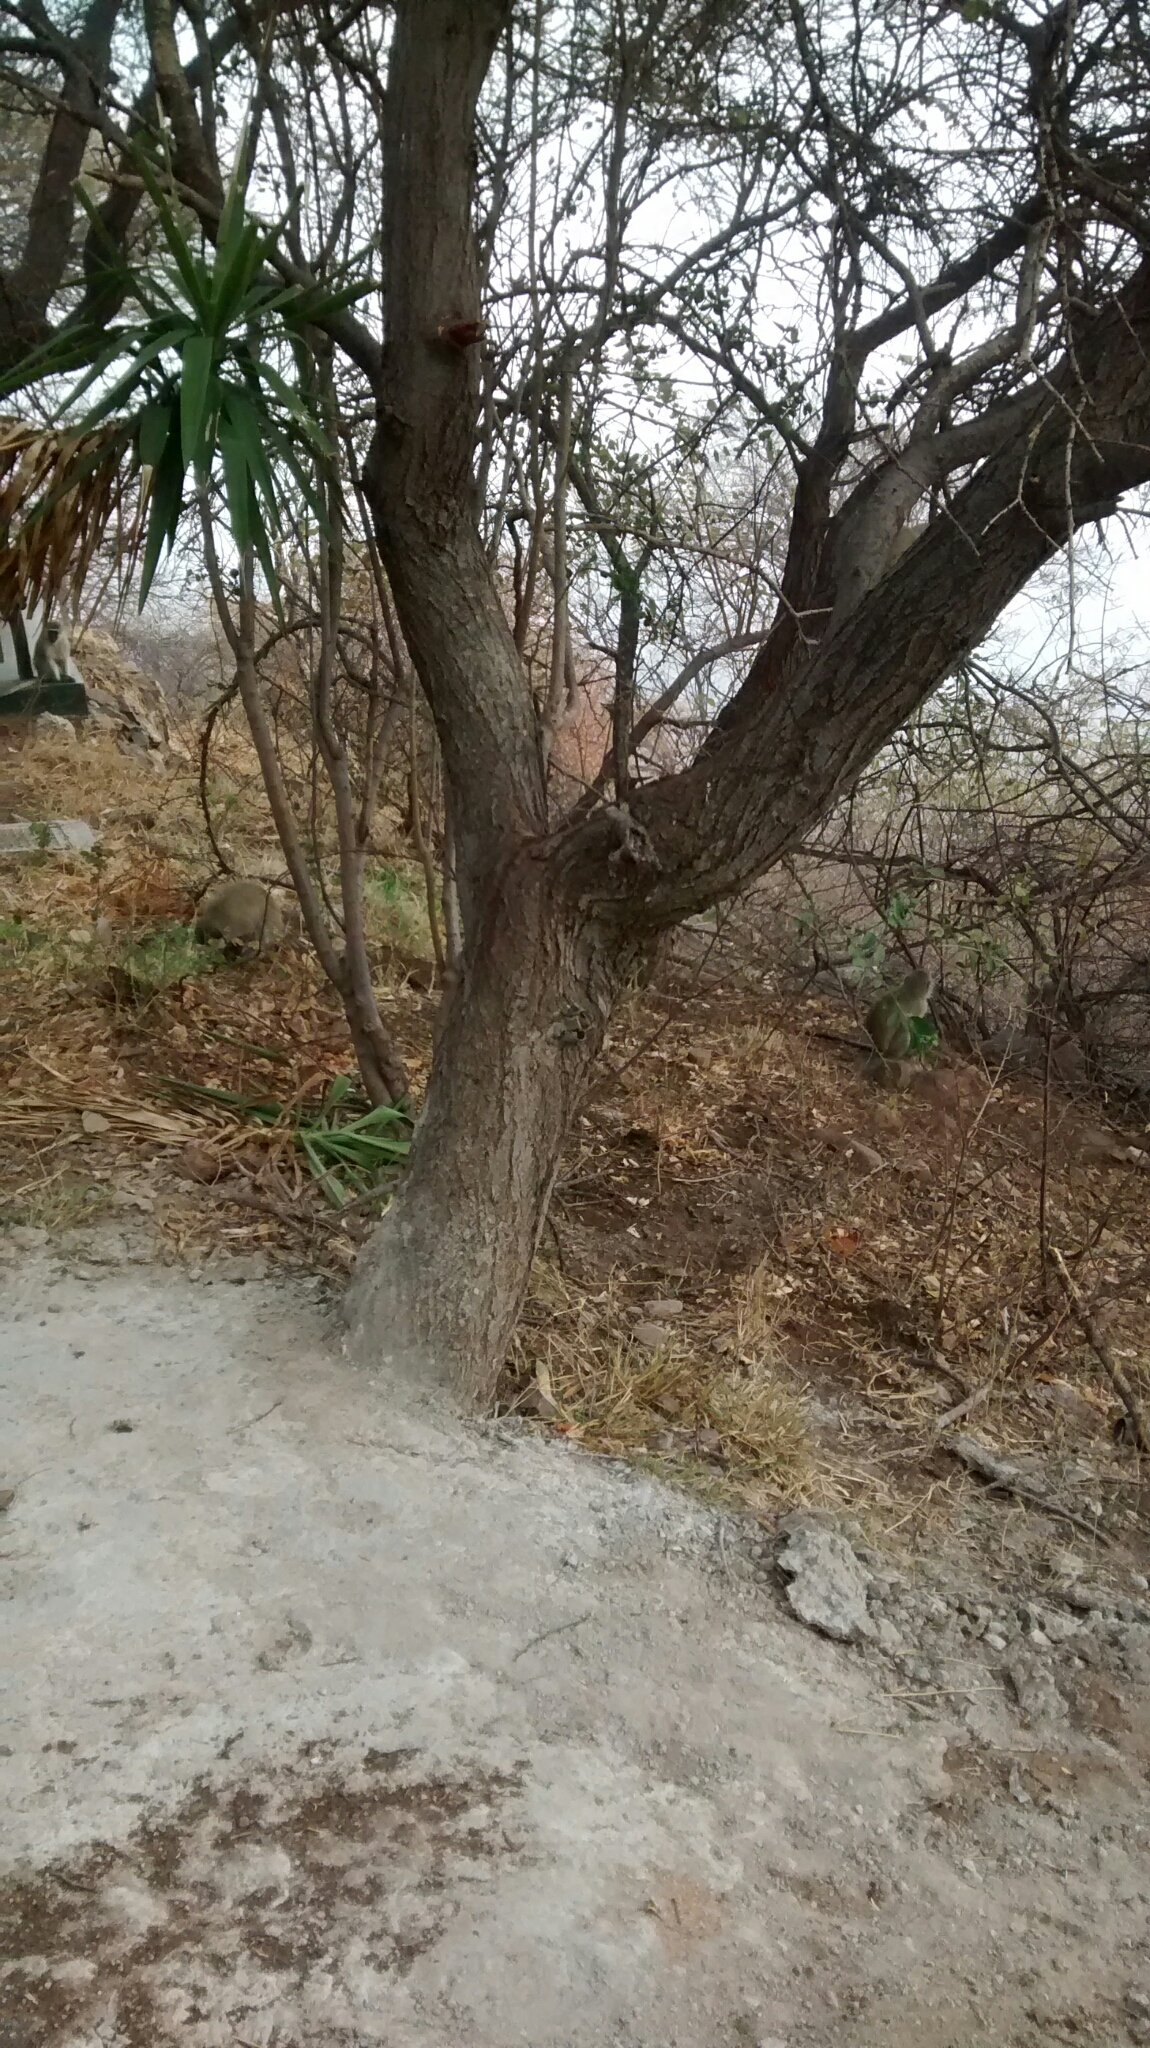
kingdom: Animalia
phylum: Chordata
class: Mammalia
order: Primates
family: Cercopithecidae
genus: Chlorocebus
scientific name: Chlorocebus pygerythrus
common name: Vervet monkey
